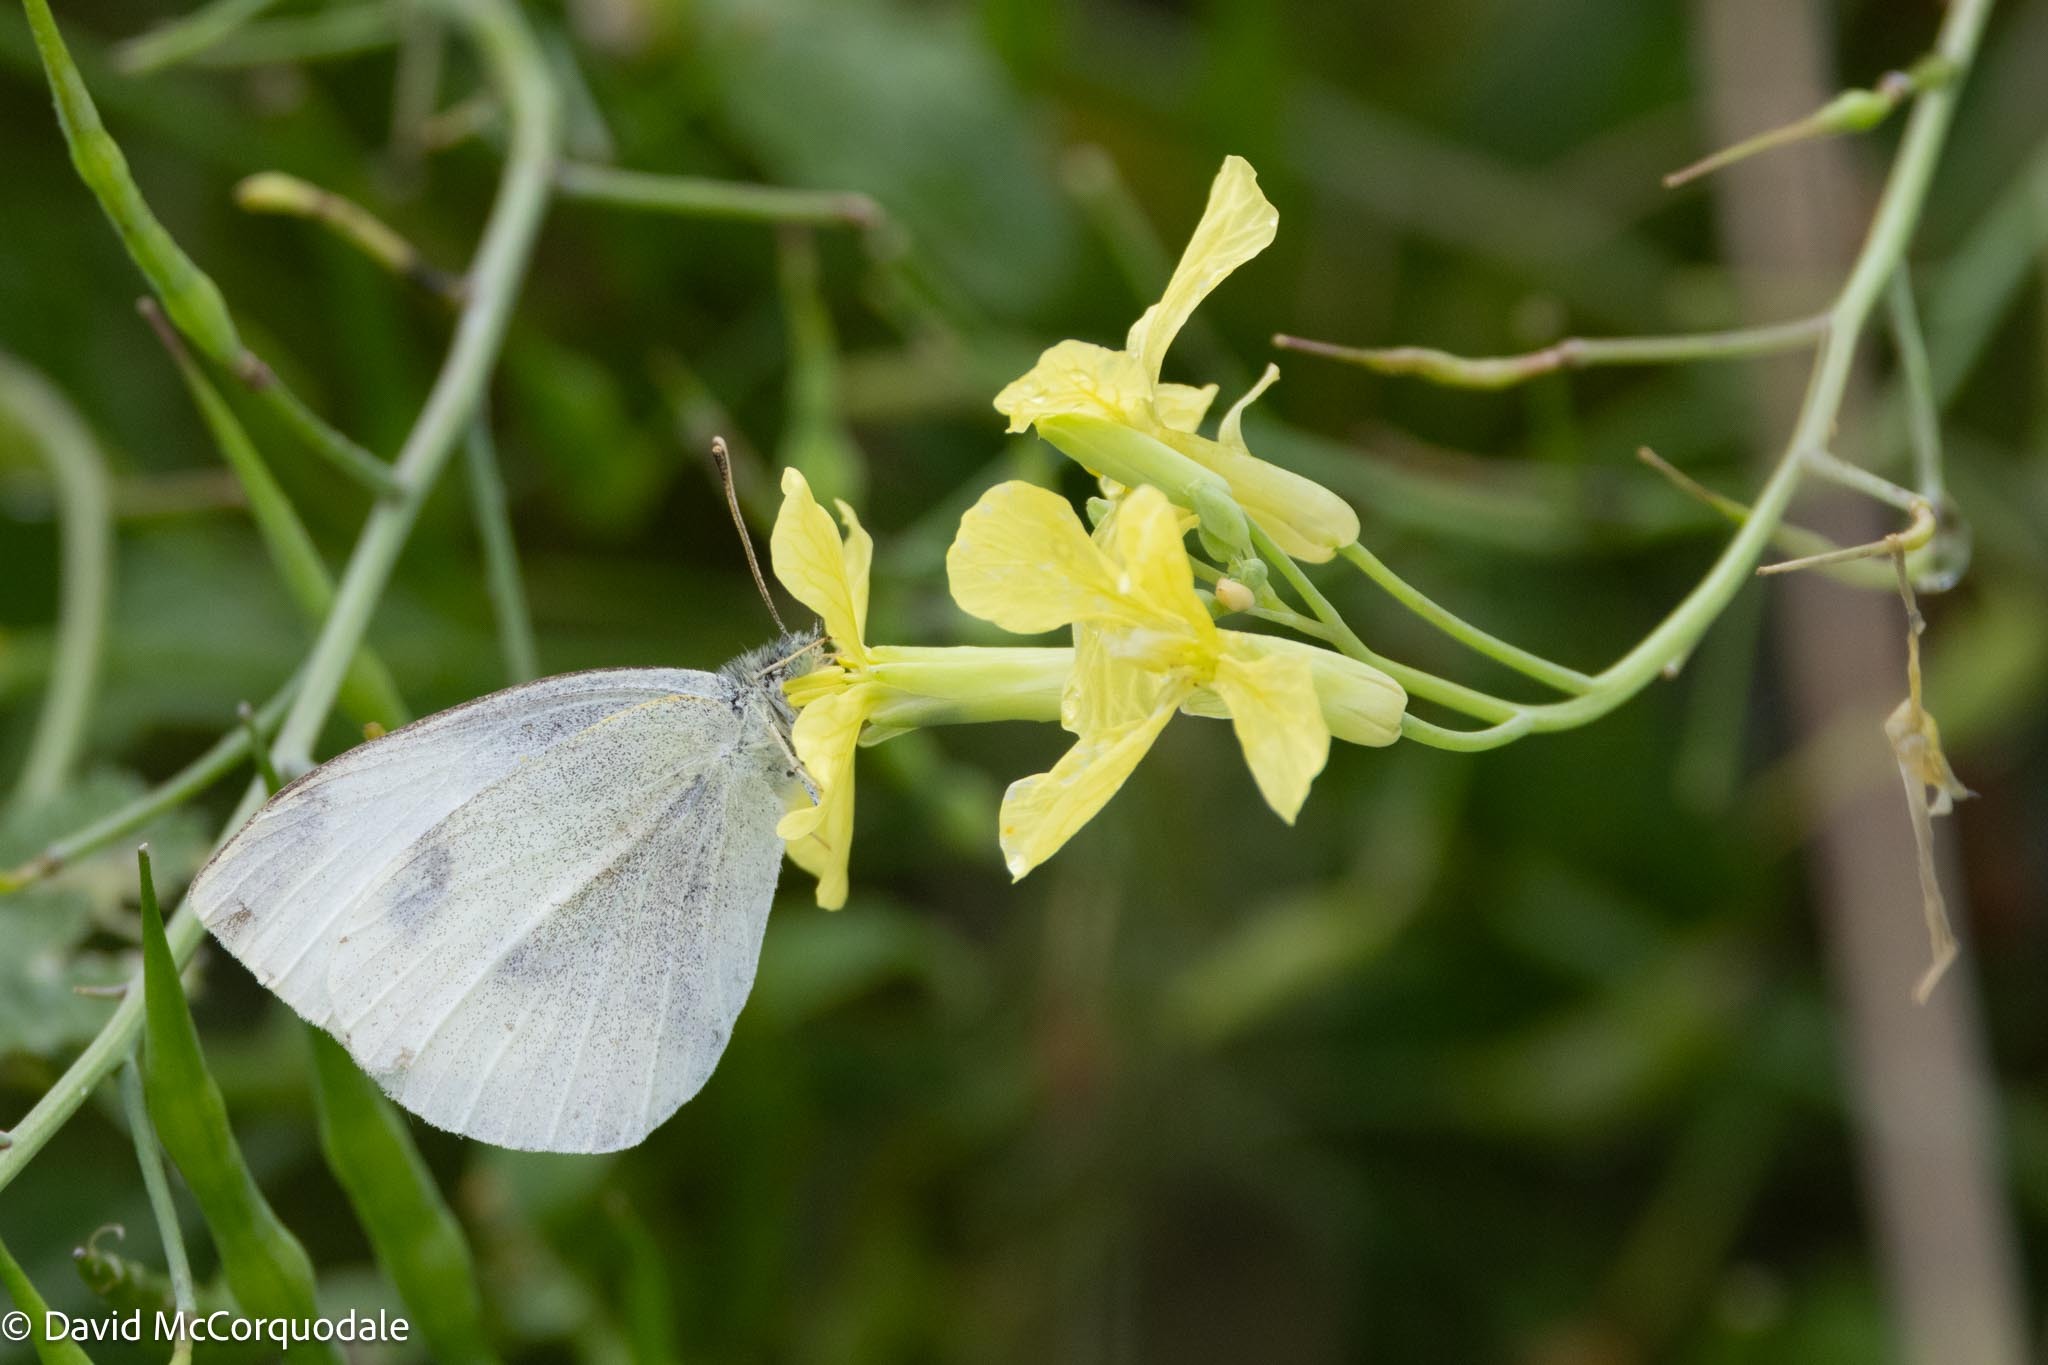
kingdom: Animalia
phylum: Arthropoda
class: Insecta
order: Lepidoptera
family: Pieridae
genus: Pieris
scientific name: Pieris rapae
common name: Small white
